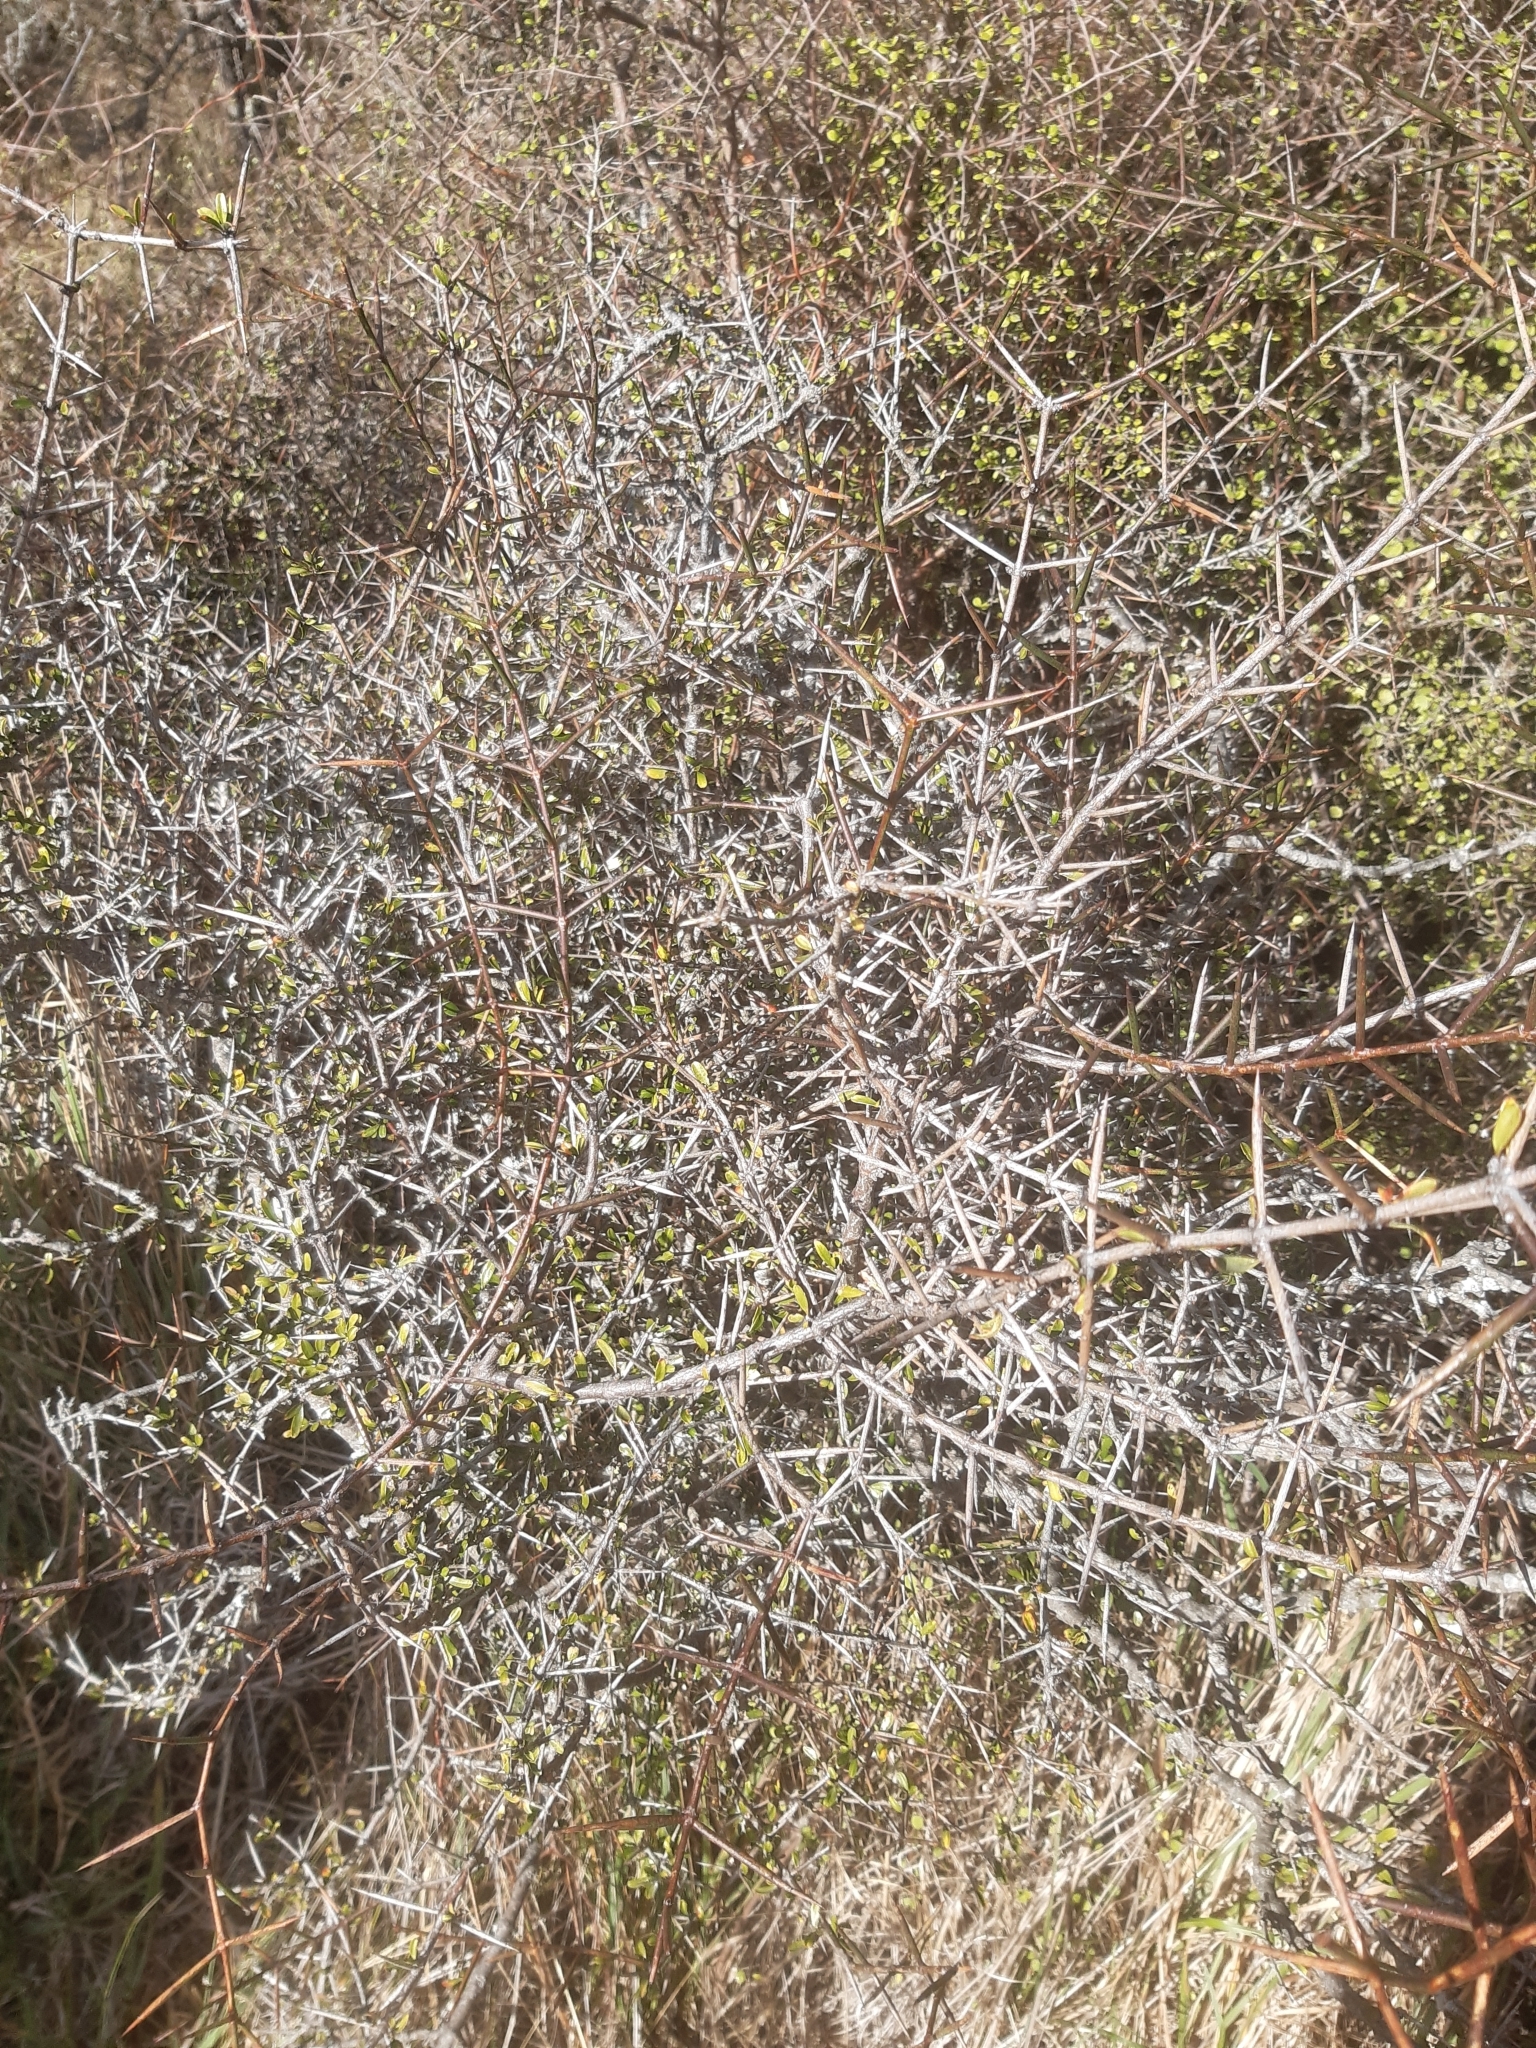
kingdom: Plantae
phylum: Tracheophyta
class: Magnoliopsida
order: Rosales
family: Rhamnaceae
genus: Discaria
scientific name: Discaria toumatou
